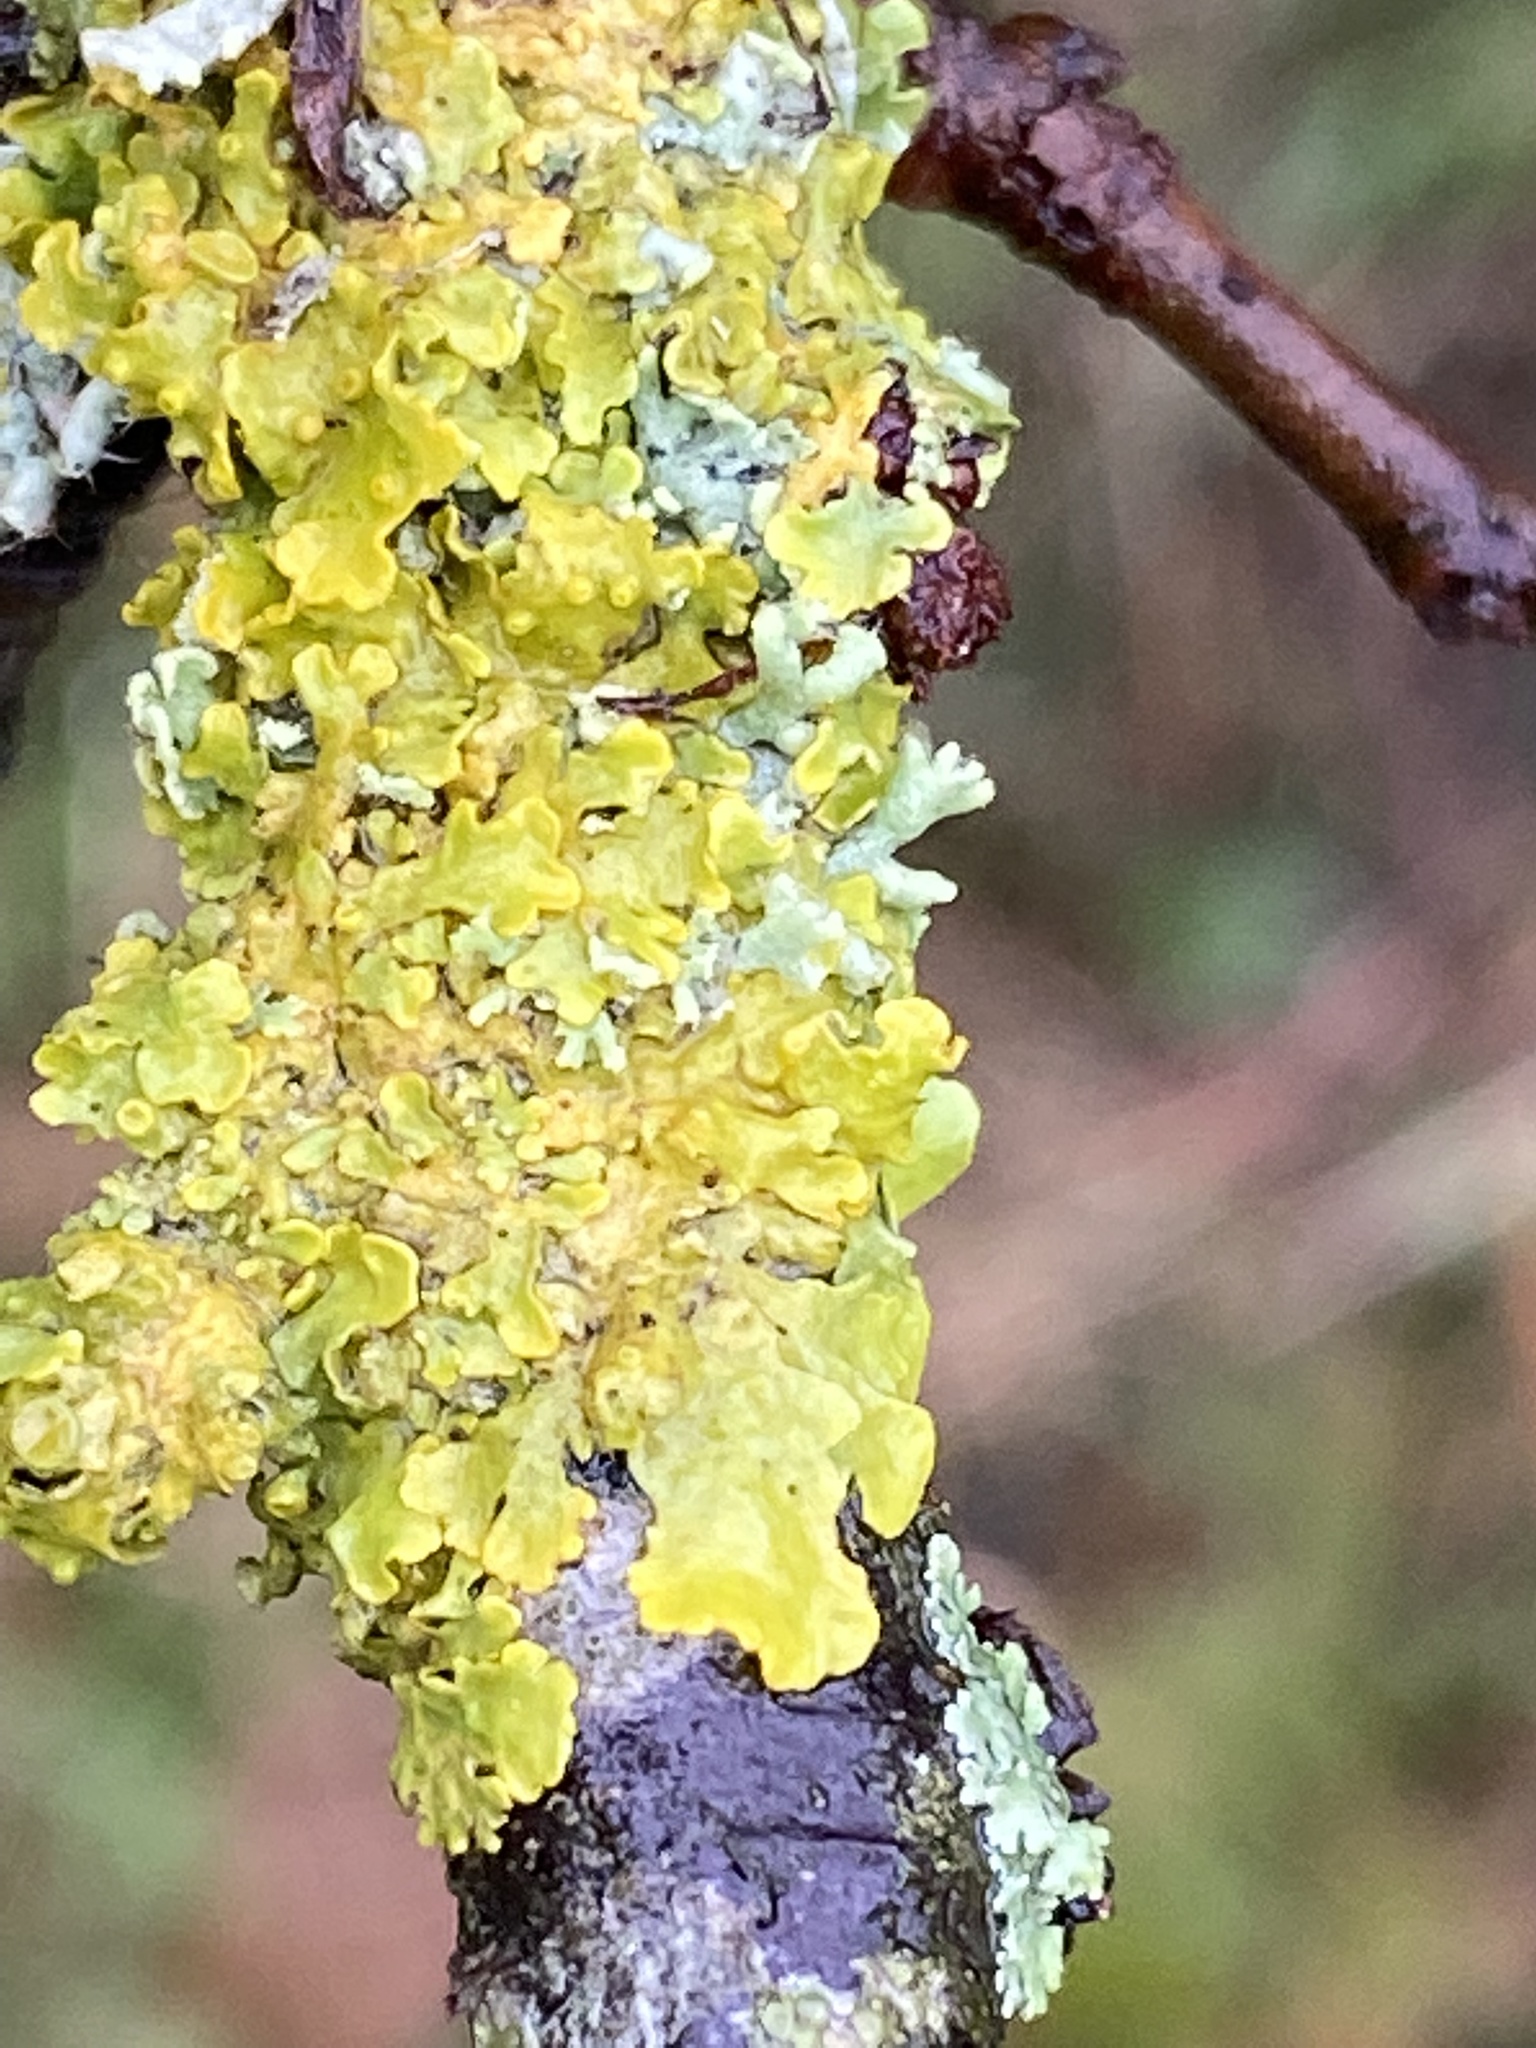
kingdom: Fungi
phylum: Ascomycota
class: Lecanoromycetes
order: Teloschistales
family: Teloschistaceae
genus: Xanthoria
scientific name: Xanthoria parietina
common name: Common orange lichen
